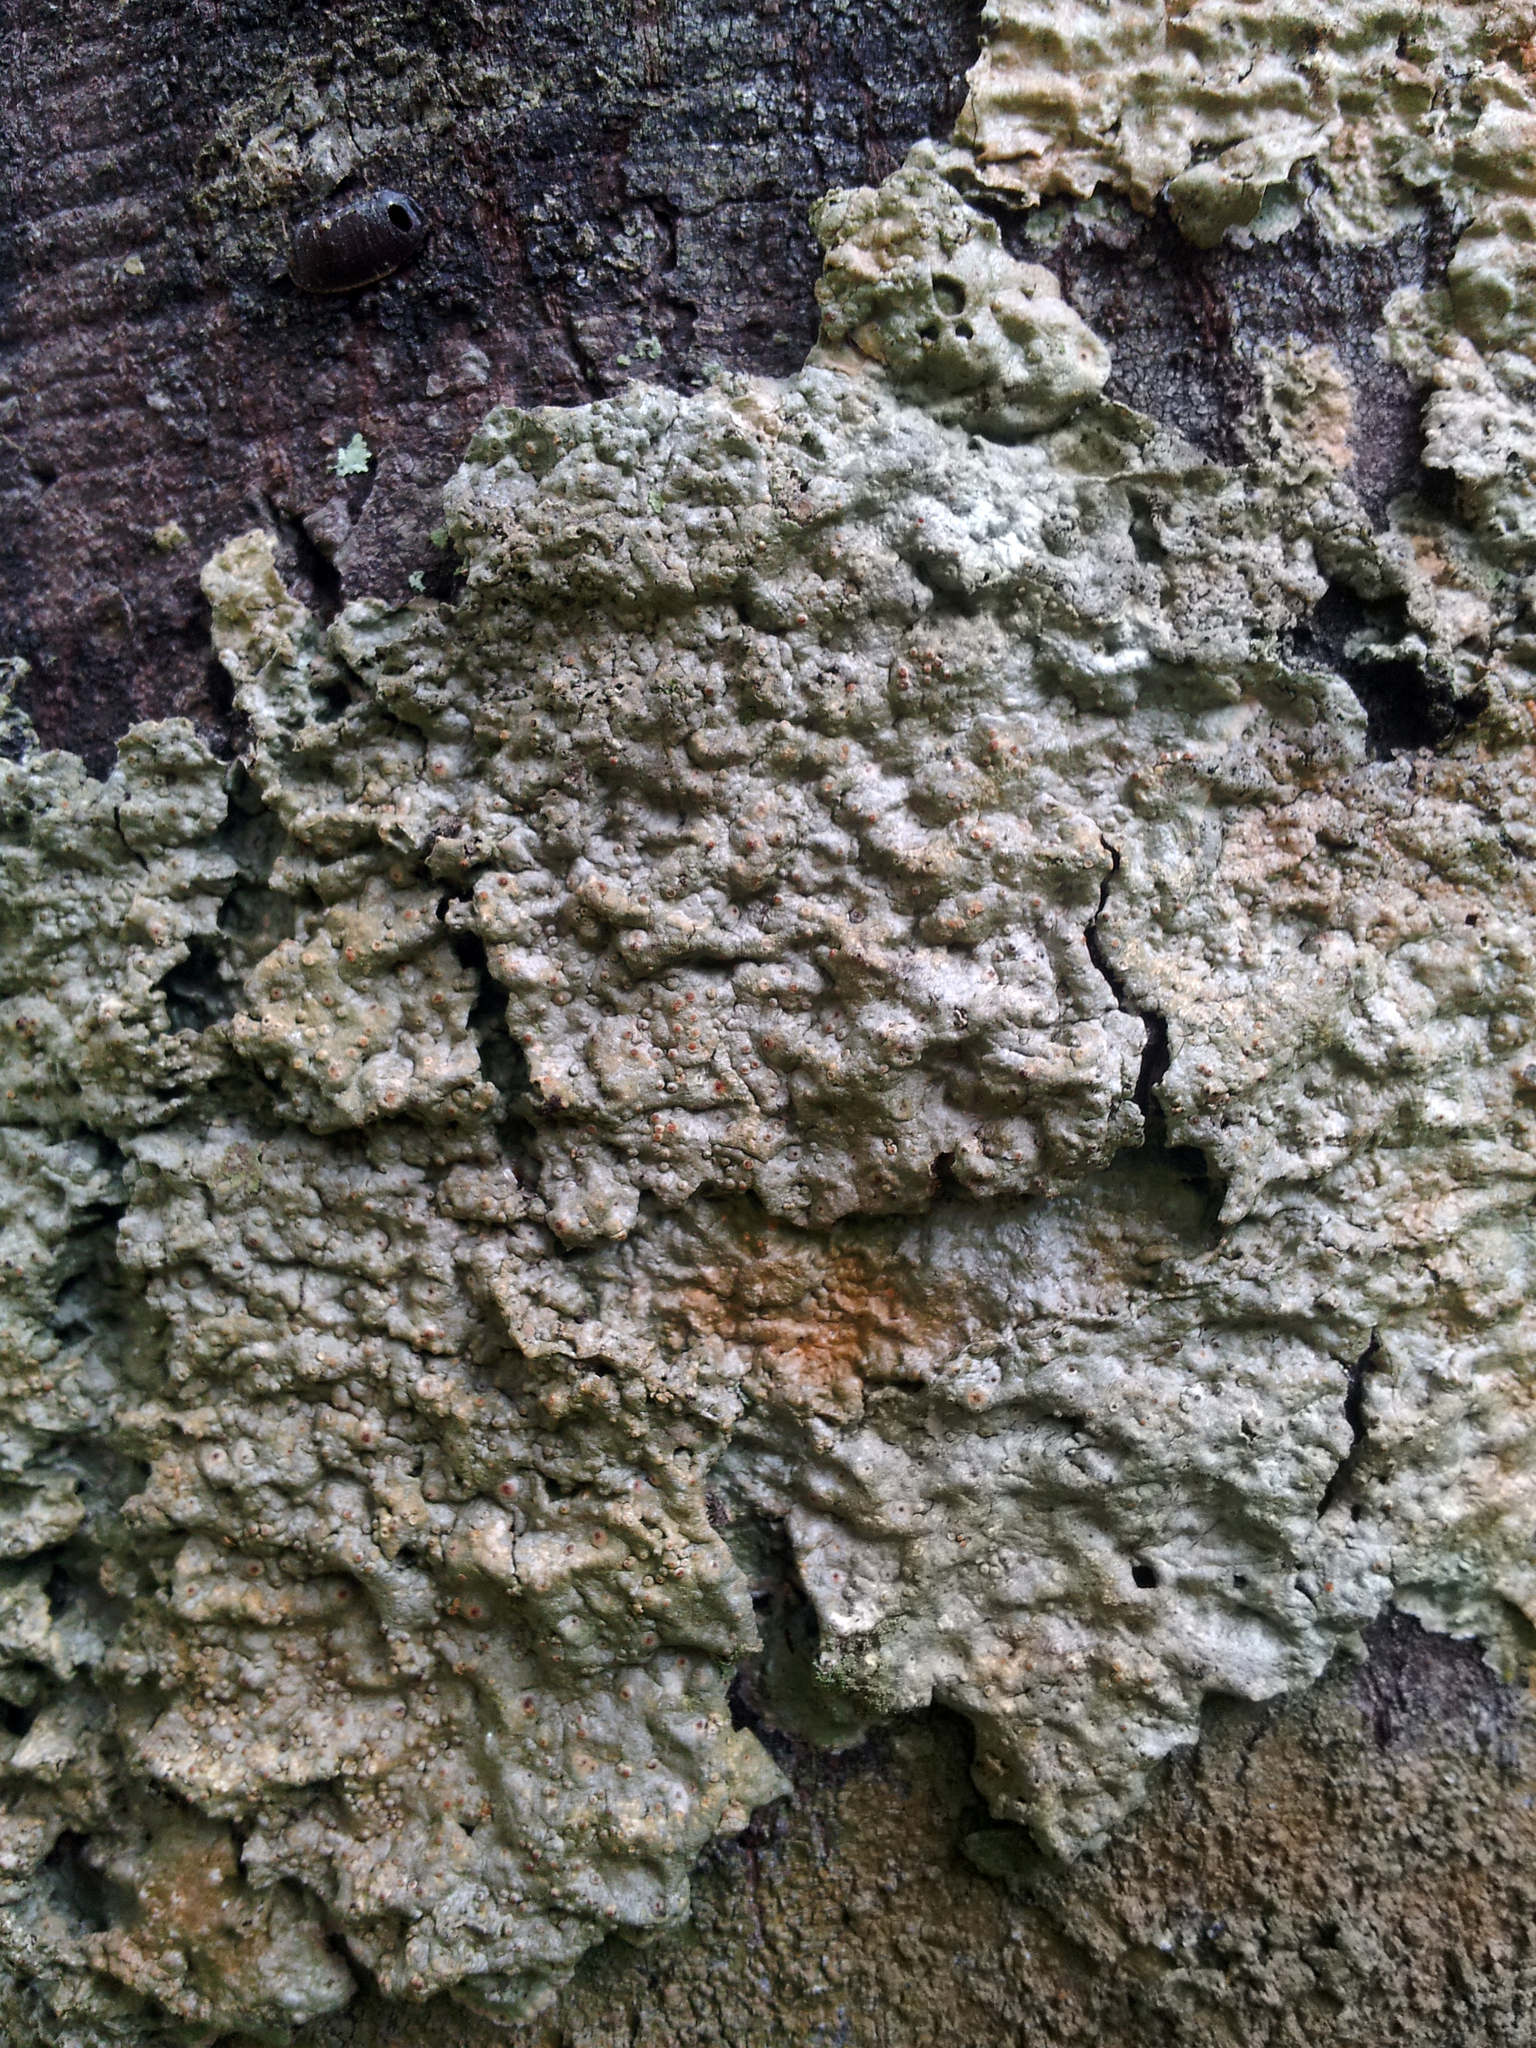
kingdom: Fungi
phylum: Ascomycota
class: Lecanoromycetes
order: Pertusariales
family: Pertusariaceae
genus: Porina
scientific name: Porina exocha
